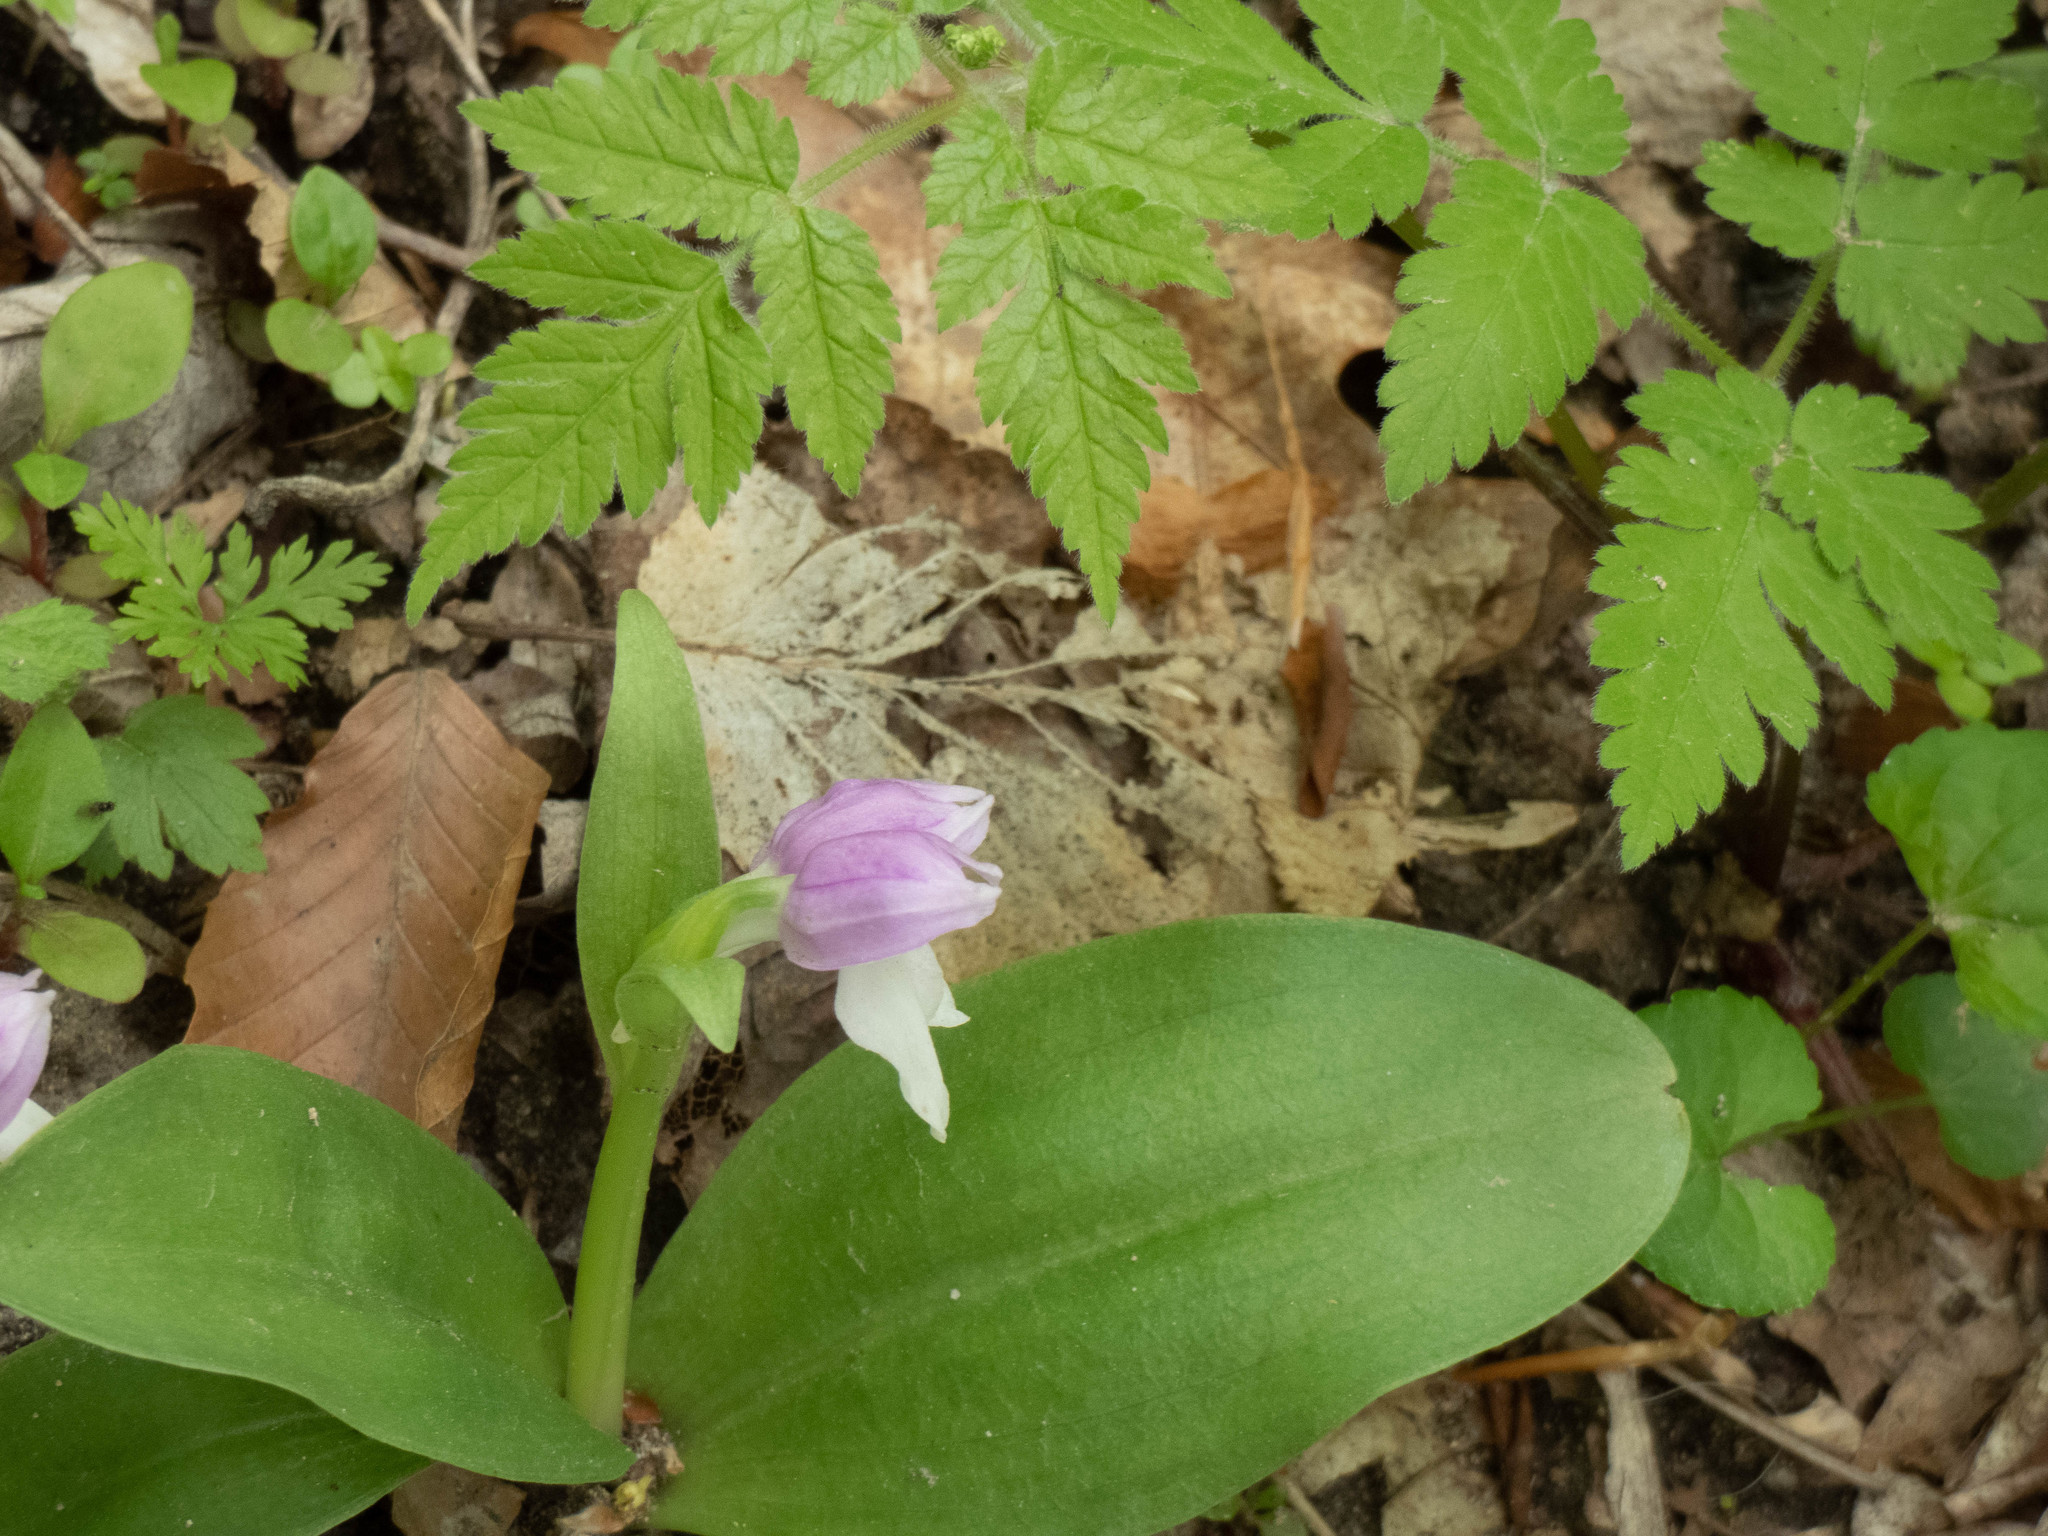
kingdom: Plantae
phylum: Tracheophyta
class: Liliopsida
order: Asparagales
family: Orchidaceae
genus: Galearis
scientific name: Galearis spectabilis
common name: Purple-hooded orchis
